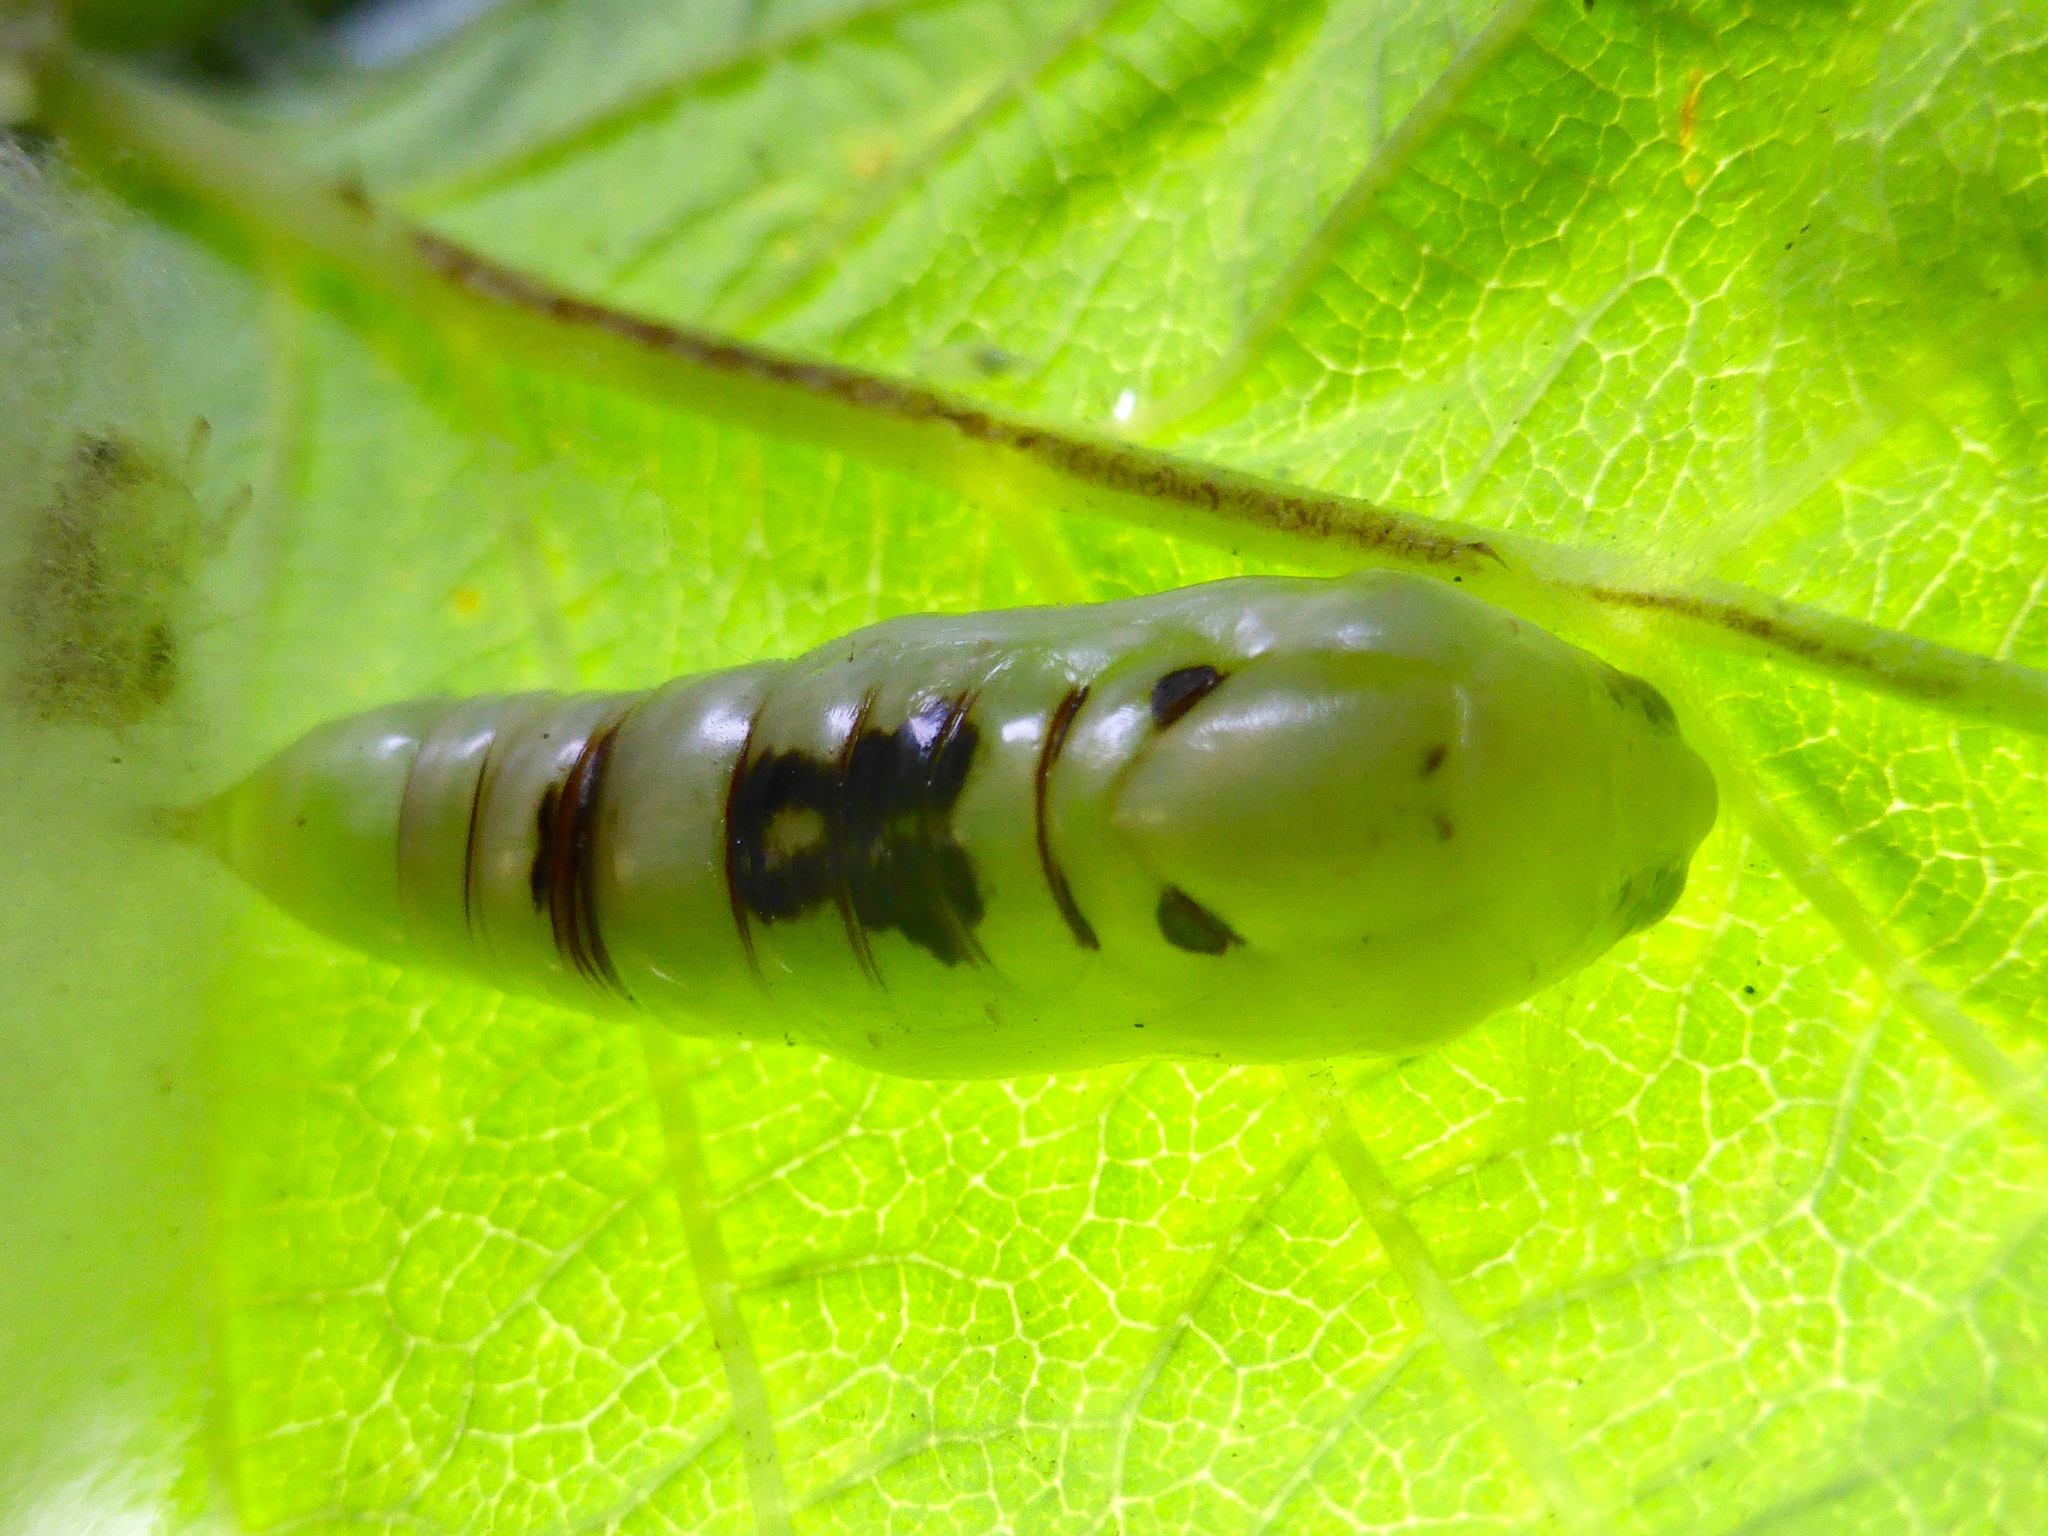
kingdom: Animalia
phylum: Arthropoda
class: Insecta
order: Lepidoptera
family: Noctuidae
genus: Chrysodeixis
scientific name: Chrysodeixis eriosoma
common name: Green garden looper
